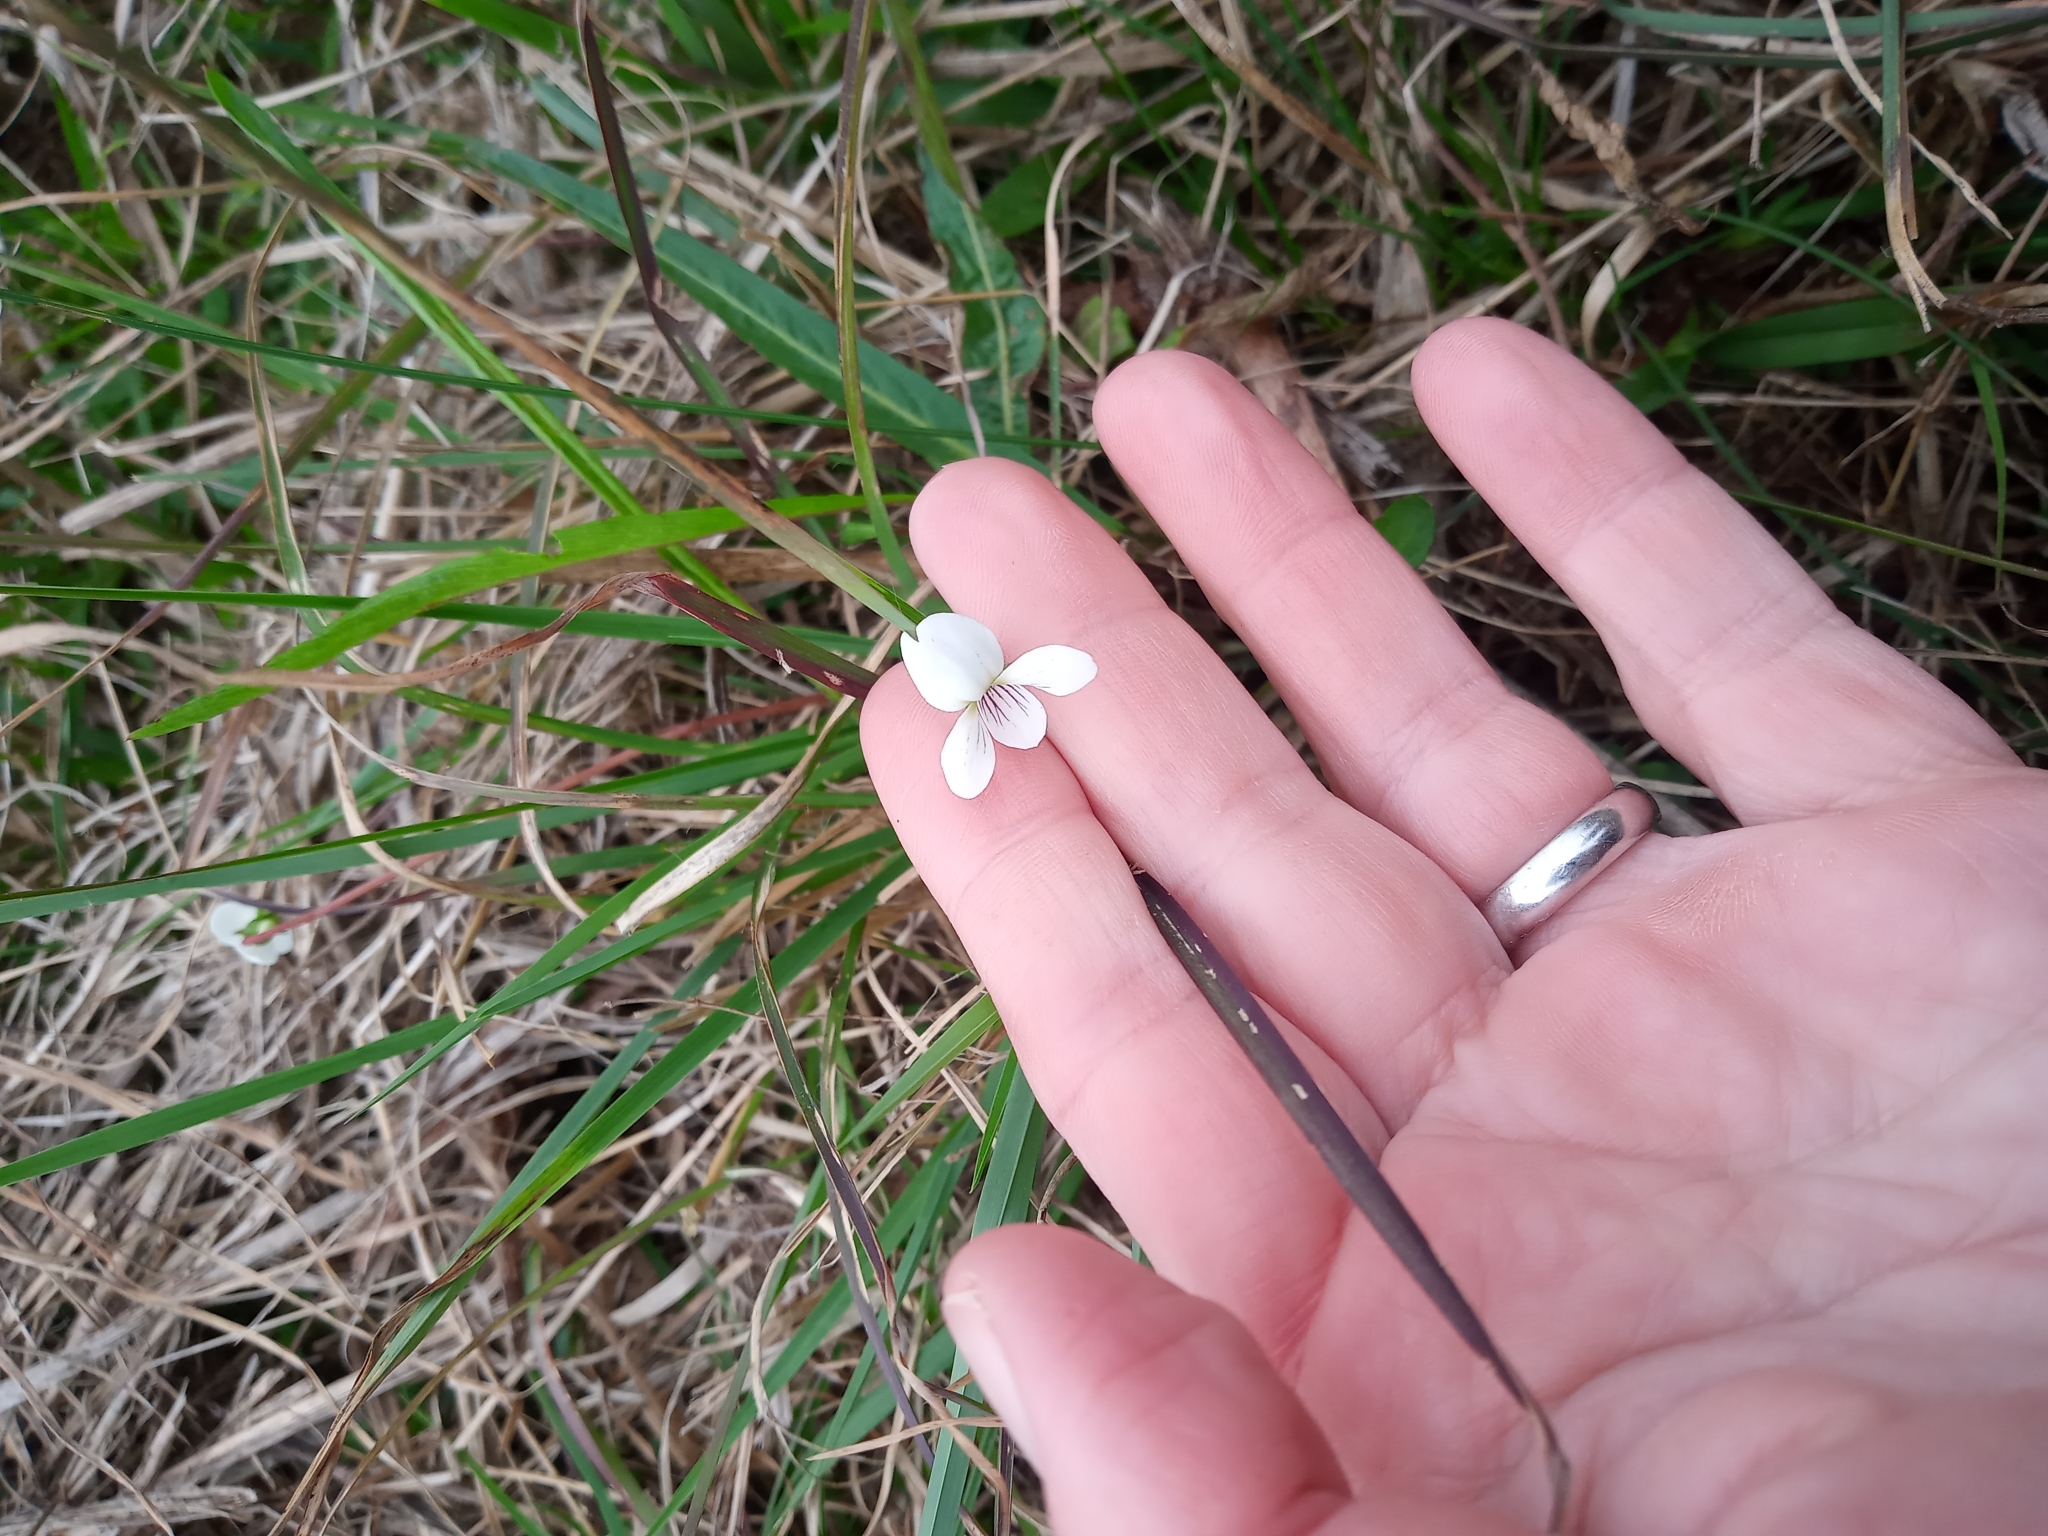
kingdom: Plantae
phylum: Tracheophyta
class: Magnoliopsida
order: Malpighiales
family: Violaceae
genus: Viola
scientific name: Viola lanceolata
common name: Bog white violet
